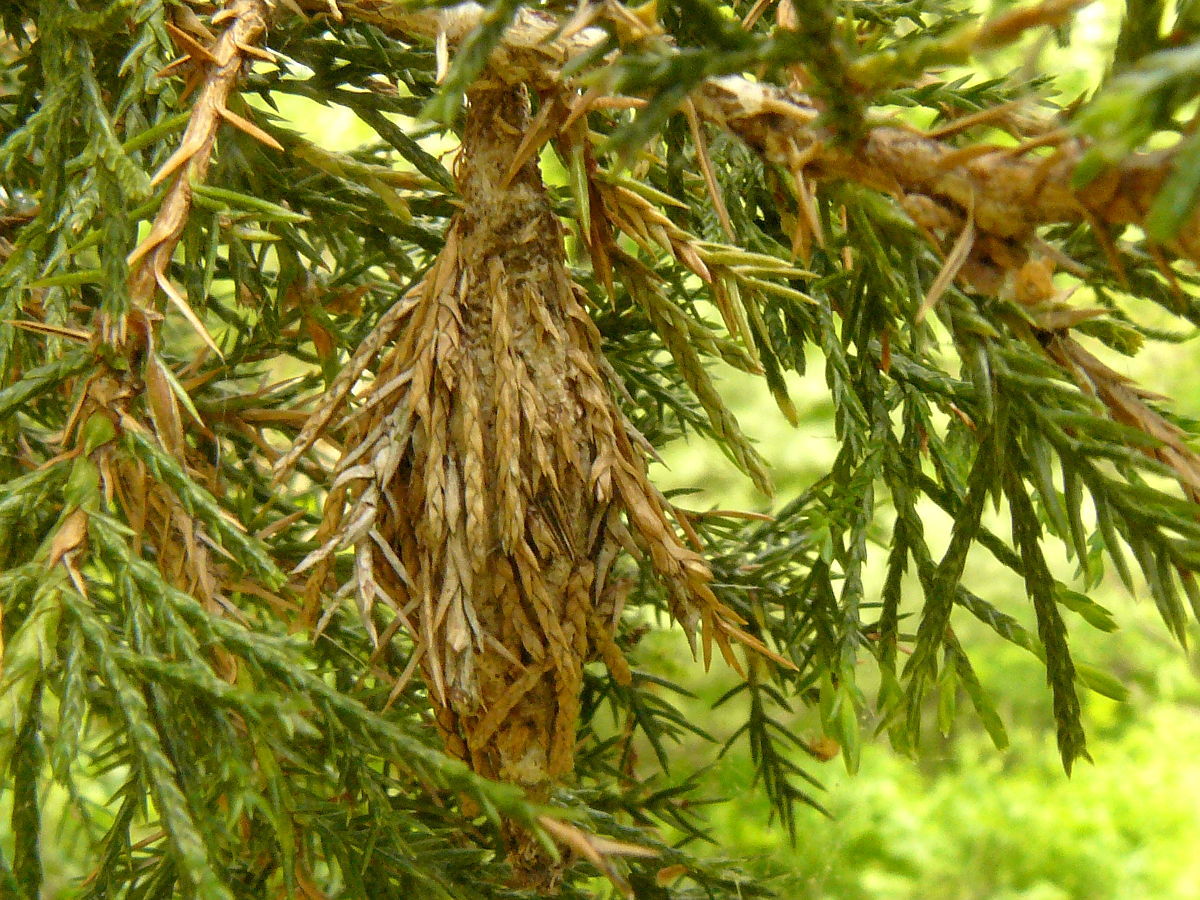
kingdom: Plantae
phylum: Tracheophyta
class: Pinopsida
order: Pinales
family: Cupressaceae
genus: Juniperus
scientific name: Juniperus virginiana
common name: Red juniper
